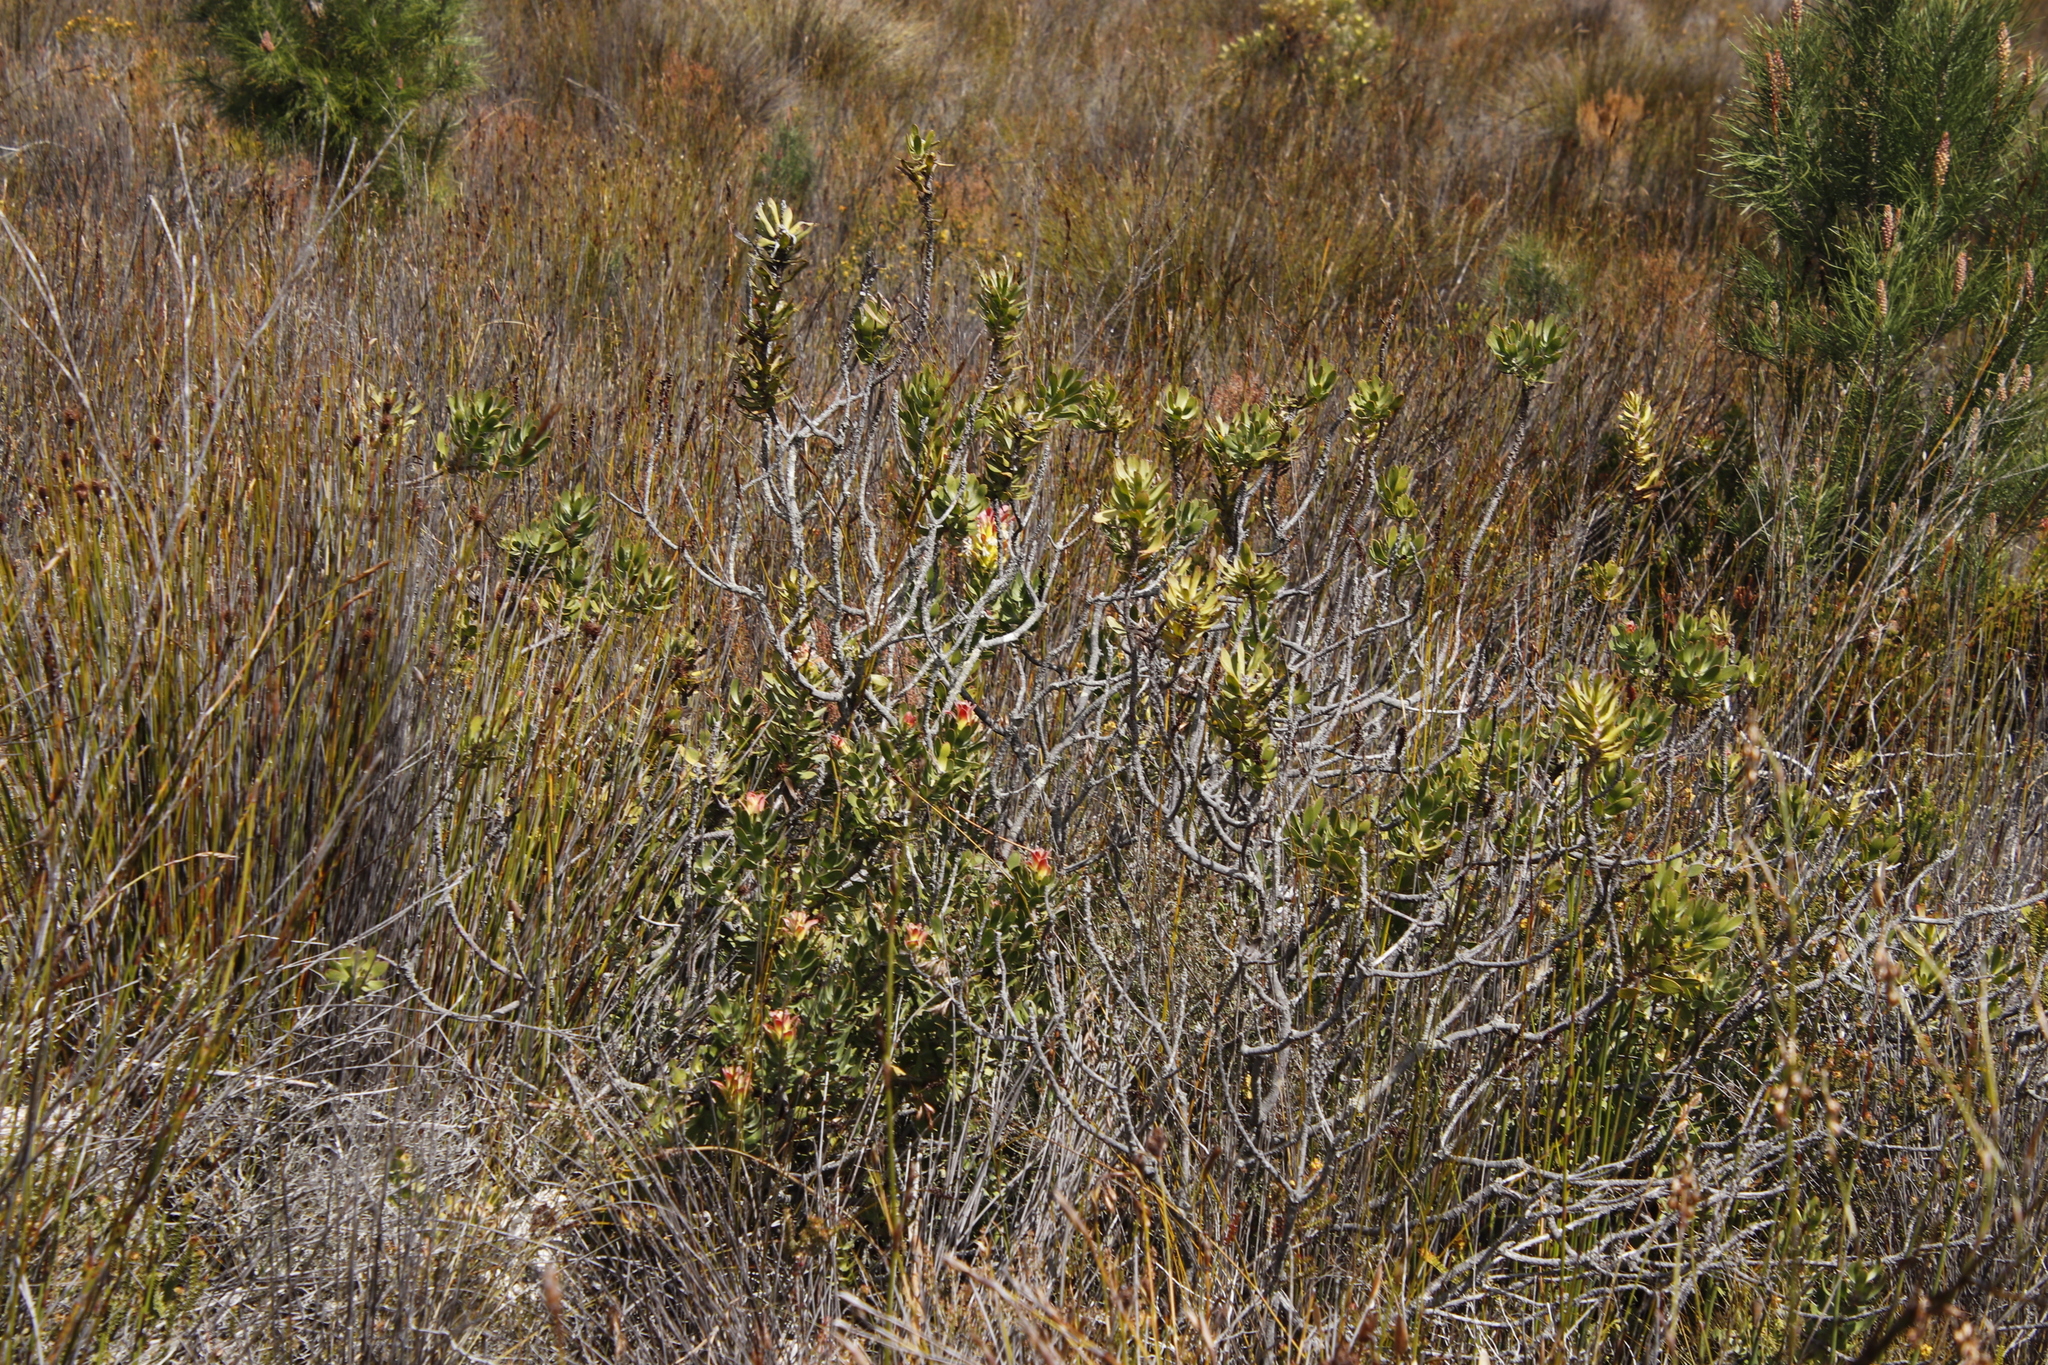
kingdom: Plantae
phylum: Tracheophyta
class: Magnoliopsida
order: Proteales
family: Proteaceae
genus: Mimetes
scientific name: Mimetes cucullatus
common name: Common pagoda
